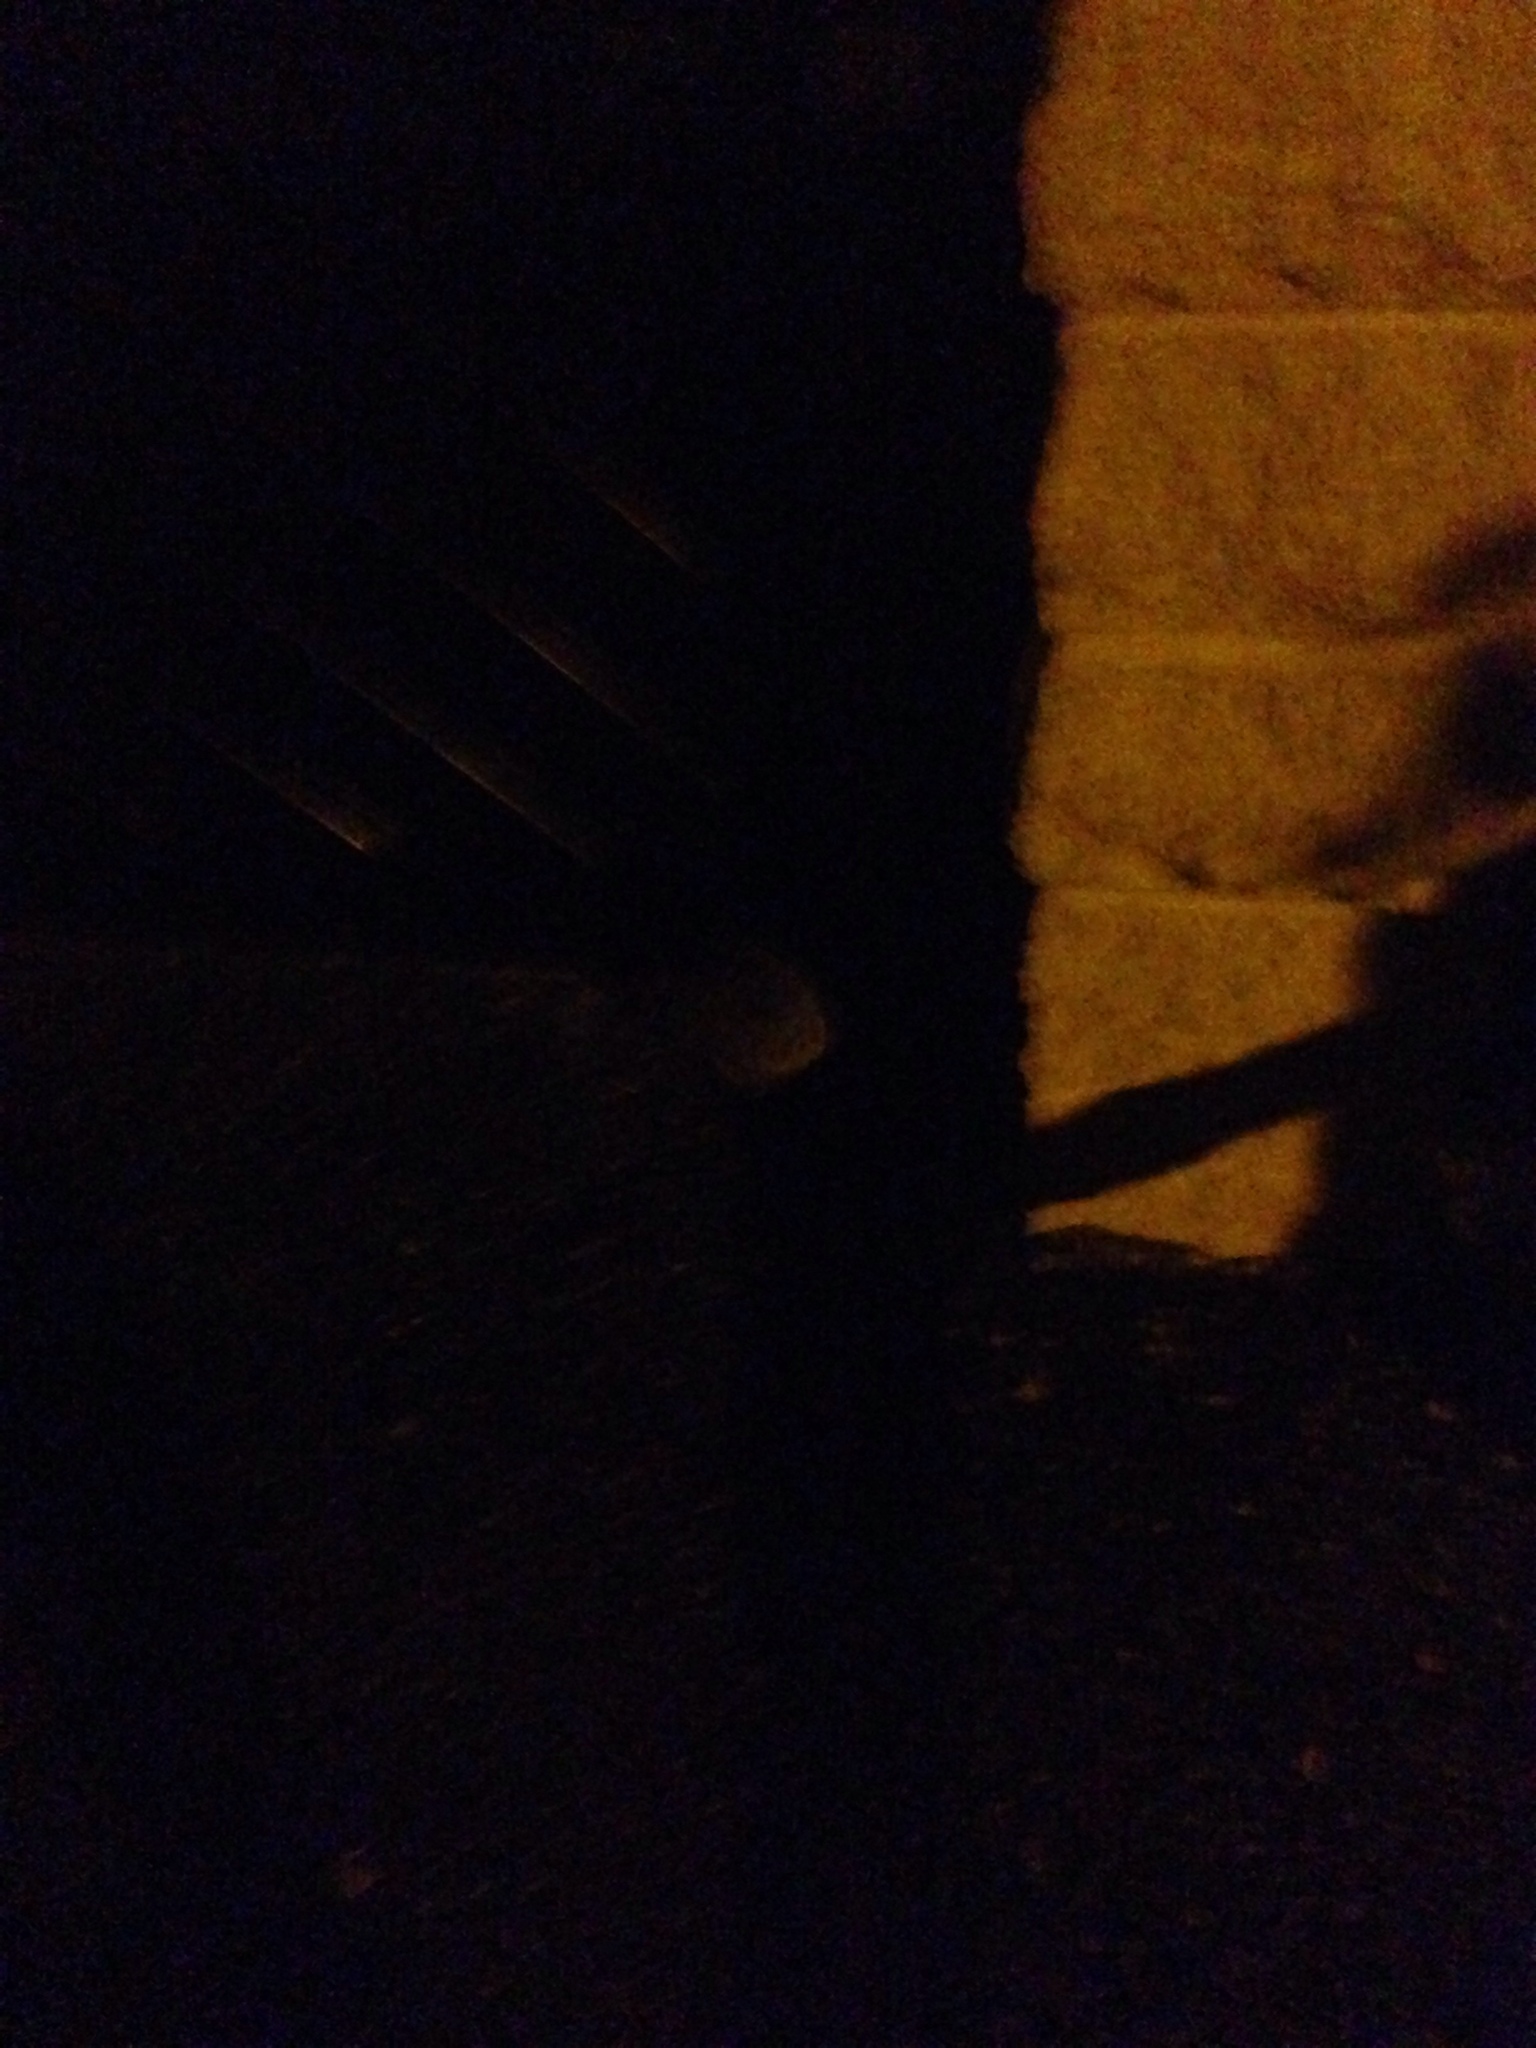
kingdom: Animalia
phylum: Chordata
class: Mammalia
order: Erinaceomorpha
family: Erinaceidae
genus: Erinaceus
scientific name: Erinaceus europaeus
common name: West european hedgehog
